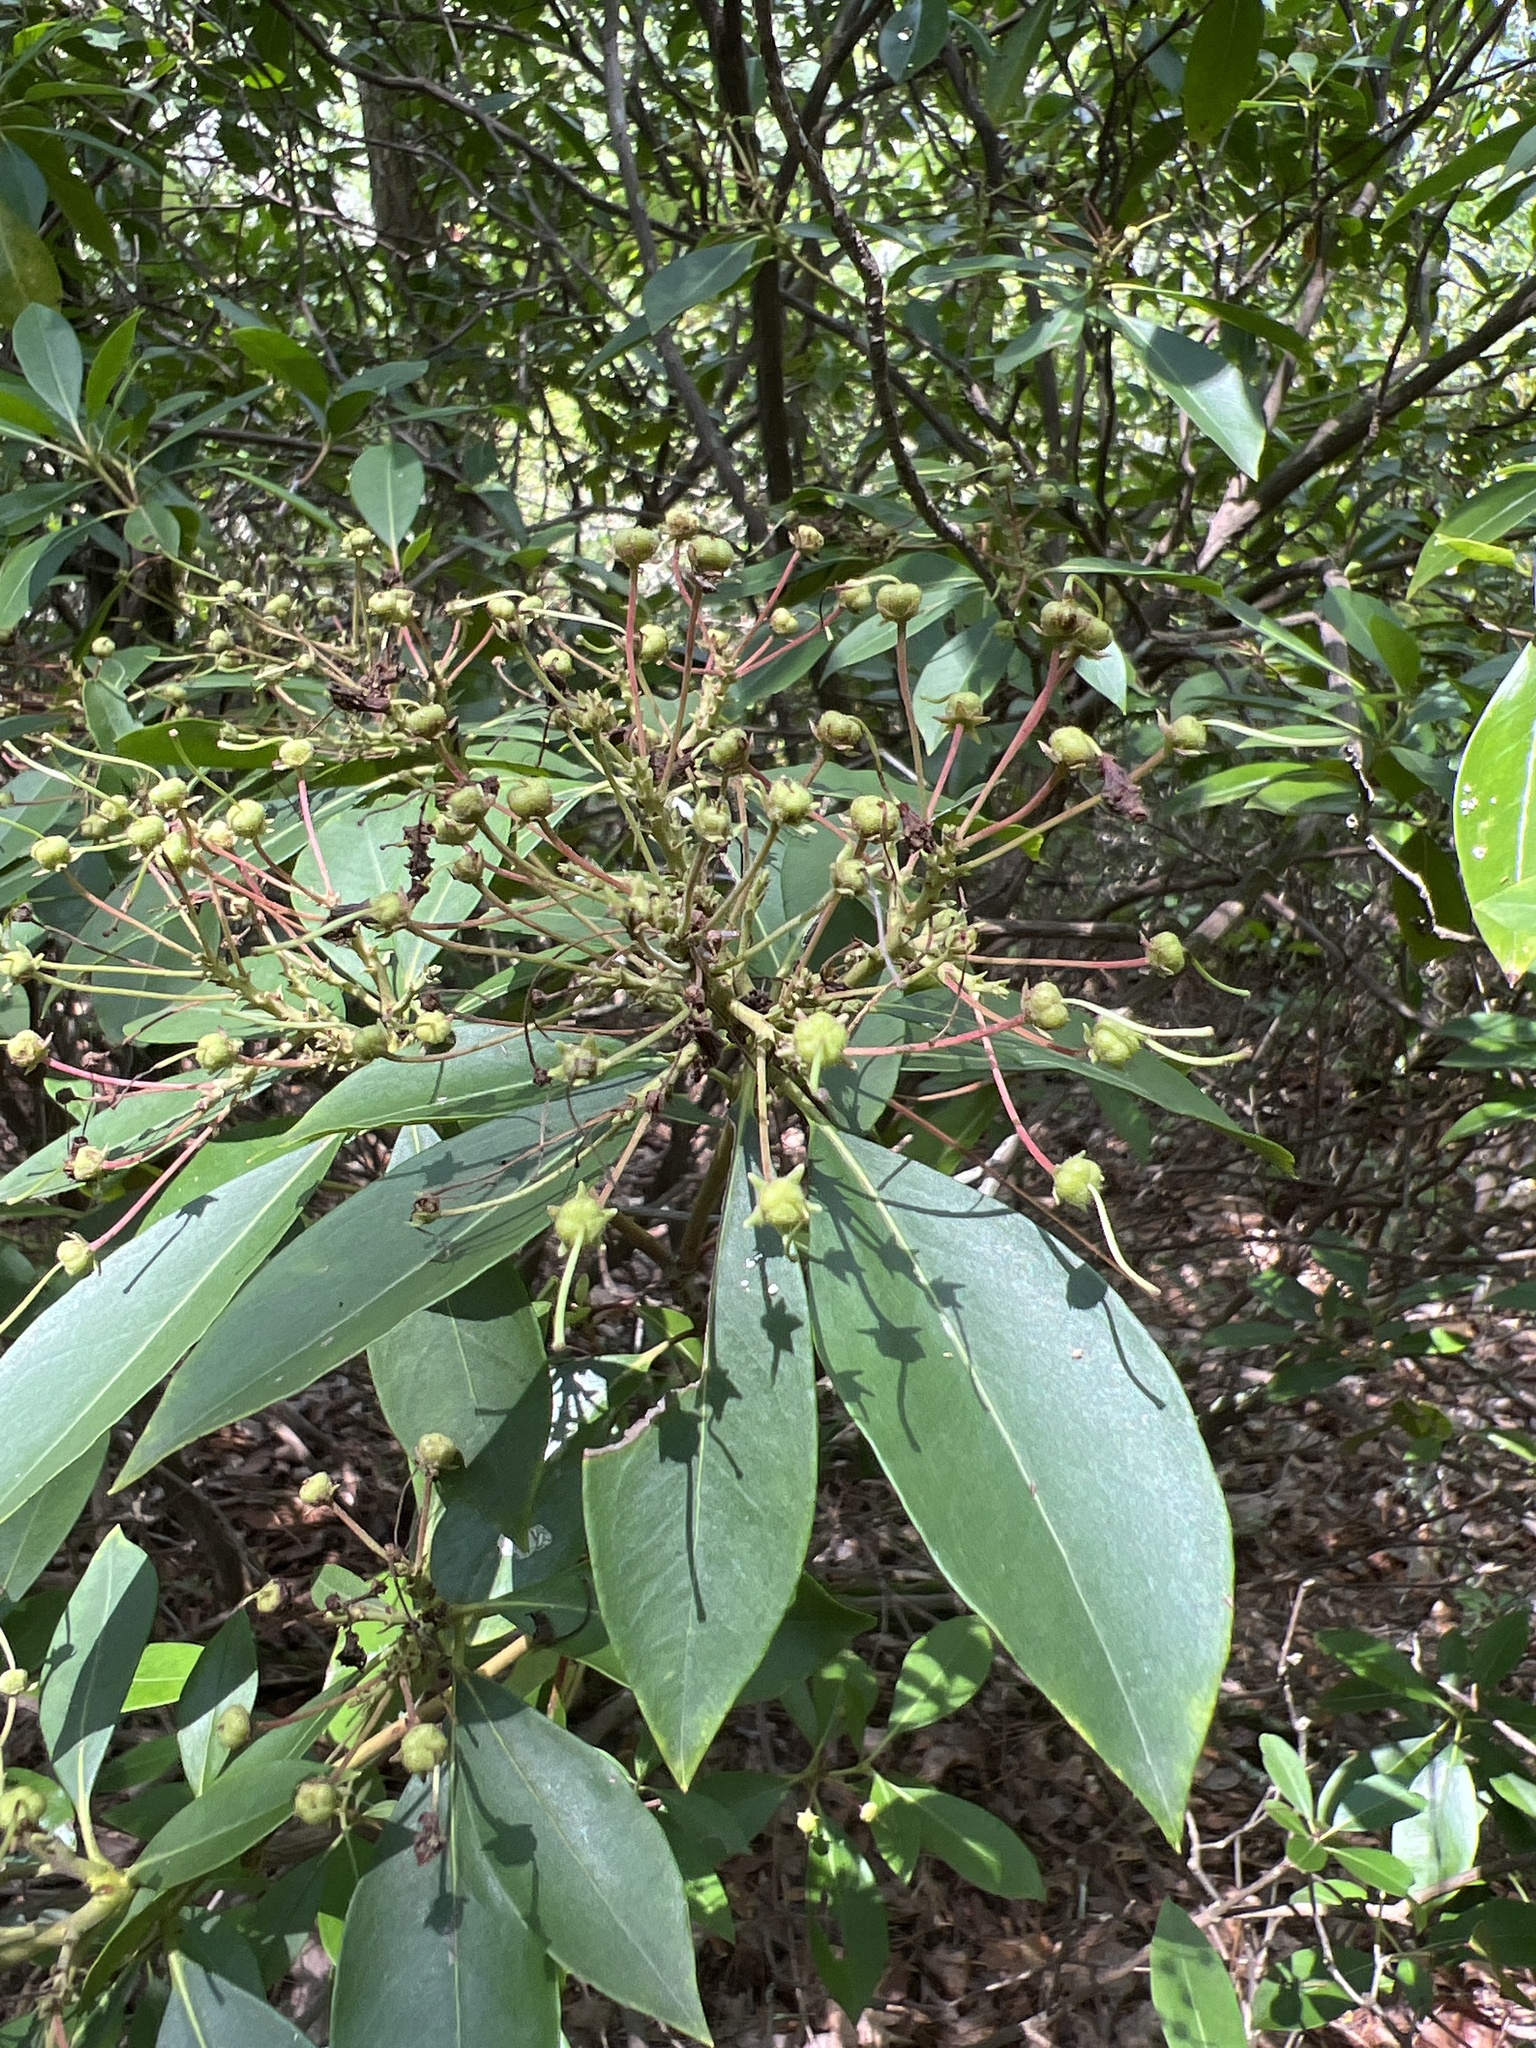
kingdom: Plantae
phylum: Tracheophyta
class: Magnoliopsida
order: Ericales
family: Ericaceae
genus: Kalmia
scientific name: Kalmia latifolia
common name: Mountain-laurel
